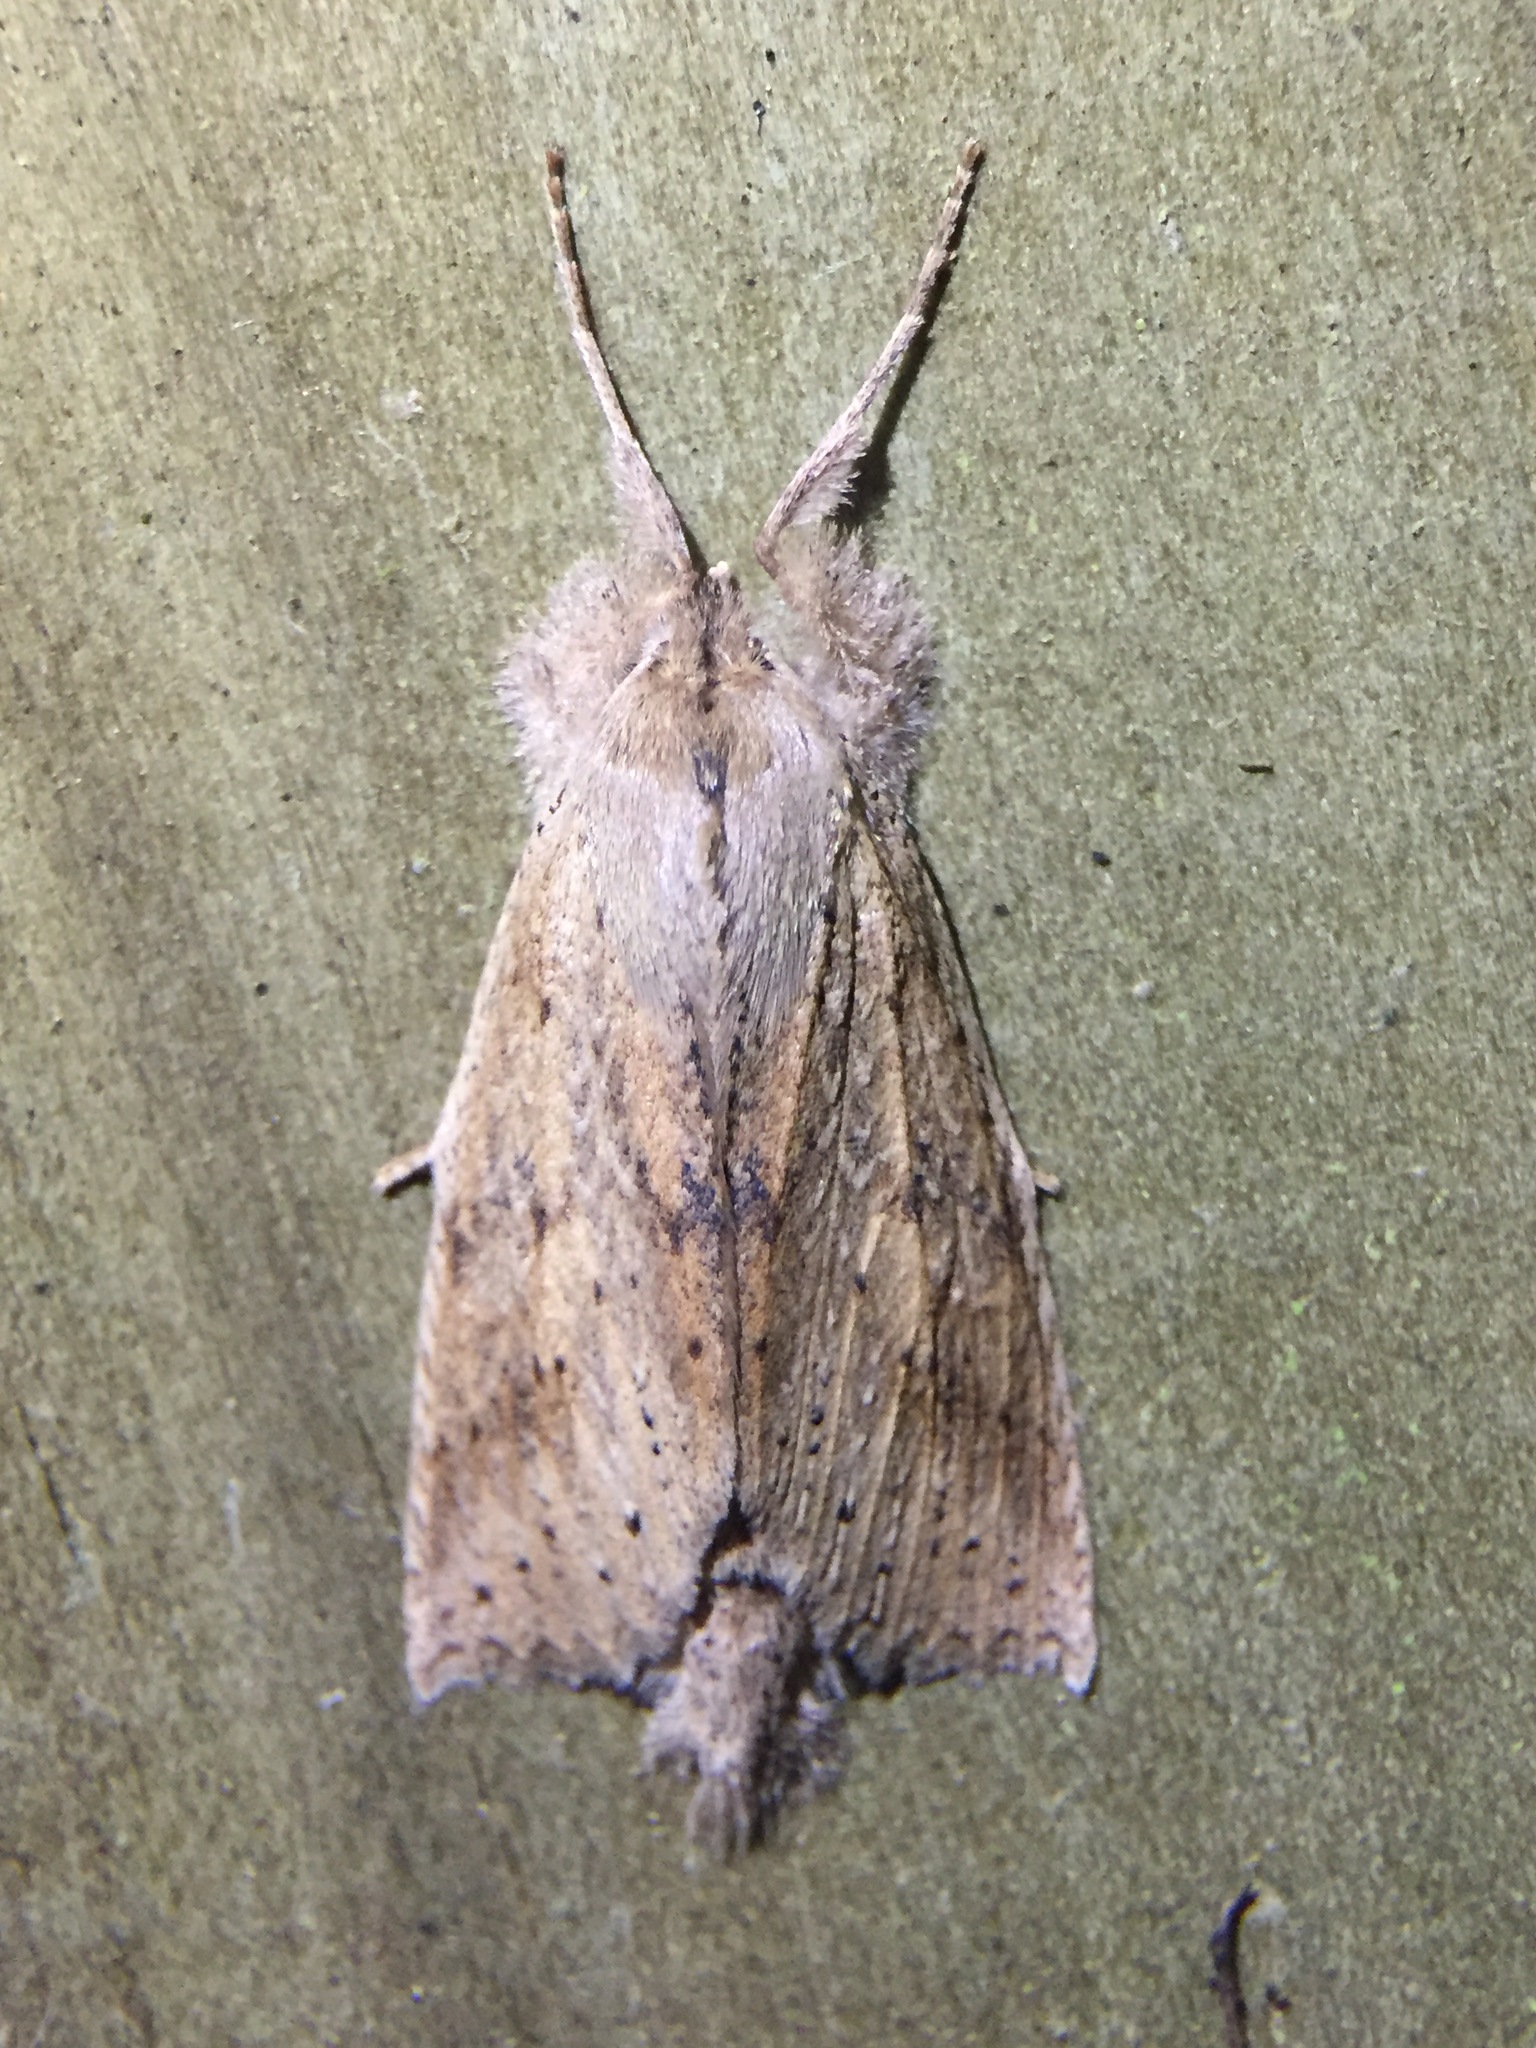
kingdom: Animalia
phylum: Arthropoda
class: Insecta
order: Lepidoptera
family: Geometridae
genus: Declana
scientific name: Declana leptomera
